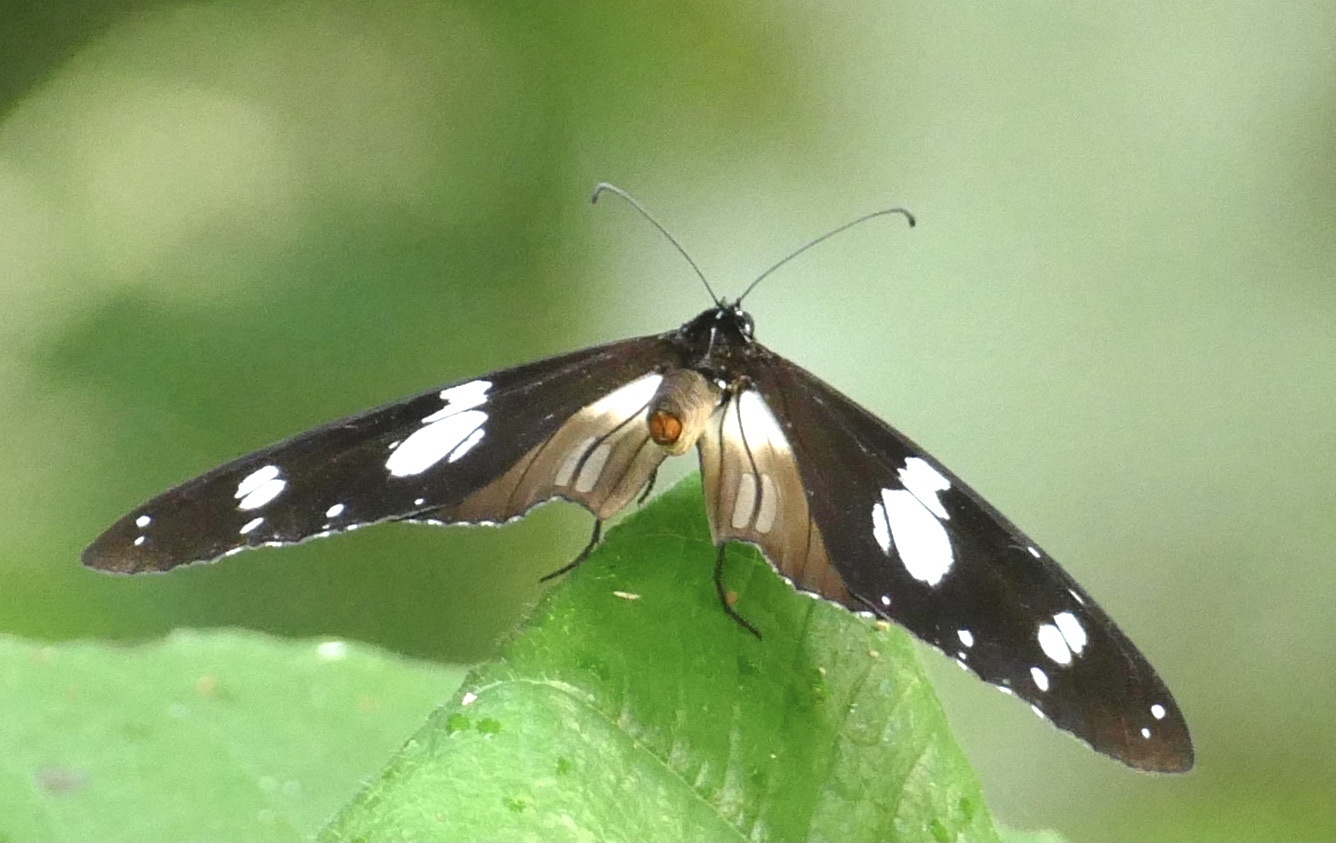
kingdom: Animalia
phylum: Arthropoda
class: Insecta
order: Lepidoptera
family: Nymphalidae
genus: Amauris
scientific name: Amauris hecate
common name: Scarce monk
